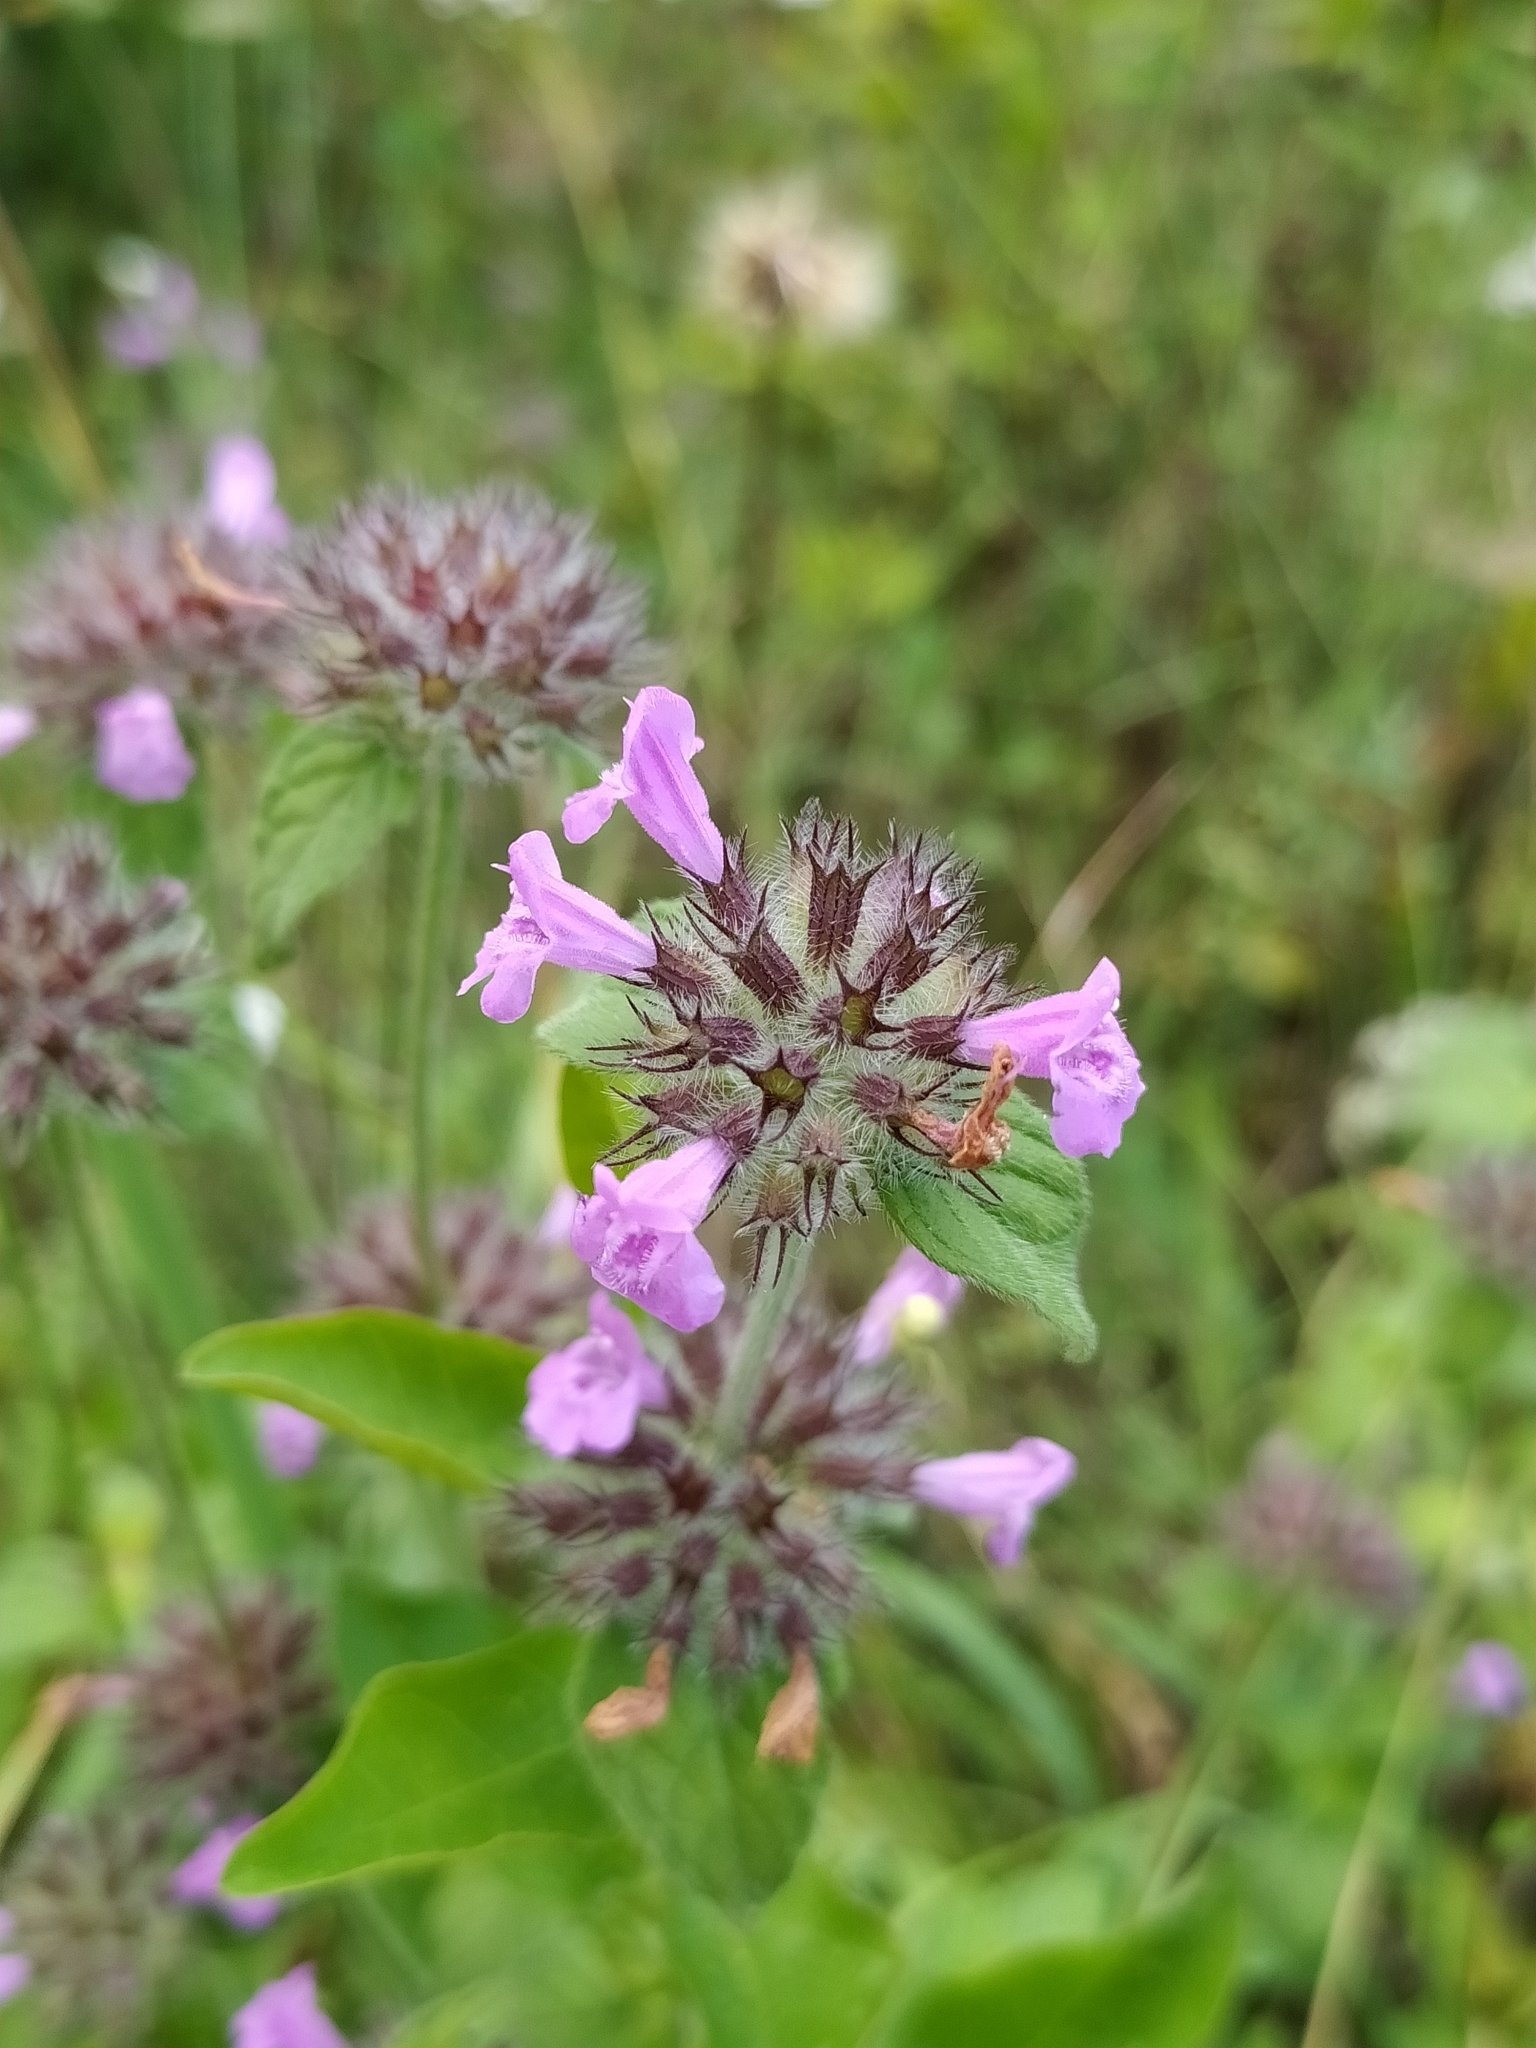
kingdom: Plantae
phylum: Tracheophyta
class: Magnoliopsida
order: Lamiales
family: Lamiaceae
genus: Clinopodium
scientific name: Clinopodium vulgare
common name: Wild basil
